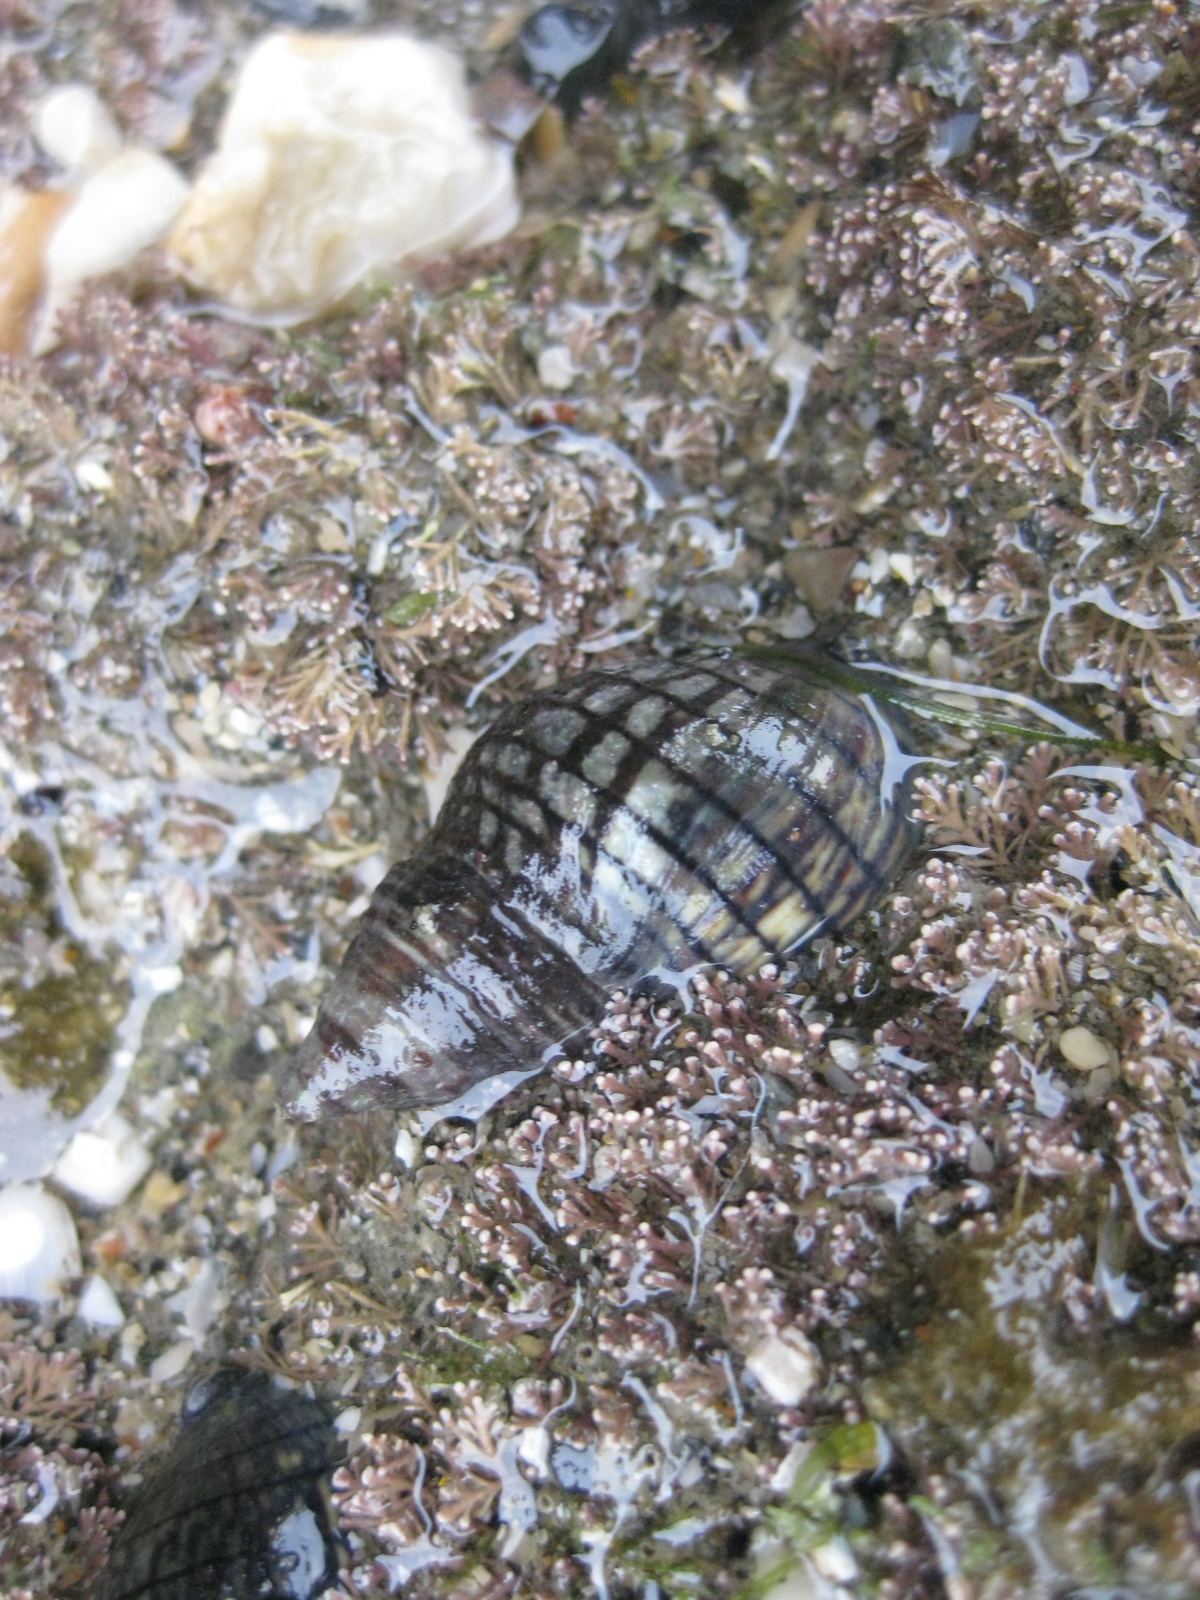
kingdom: Animalia
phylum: Mollusca
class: Gastropoda
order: Neogastropoda
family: Cominellidae
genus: Cominella
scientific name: Cominella virgata
